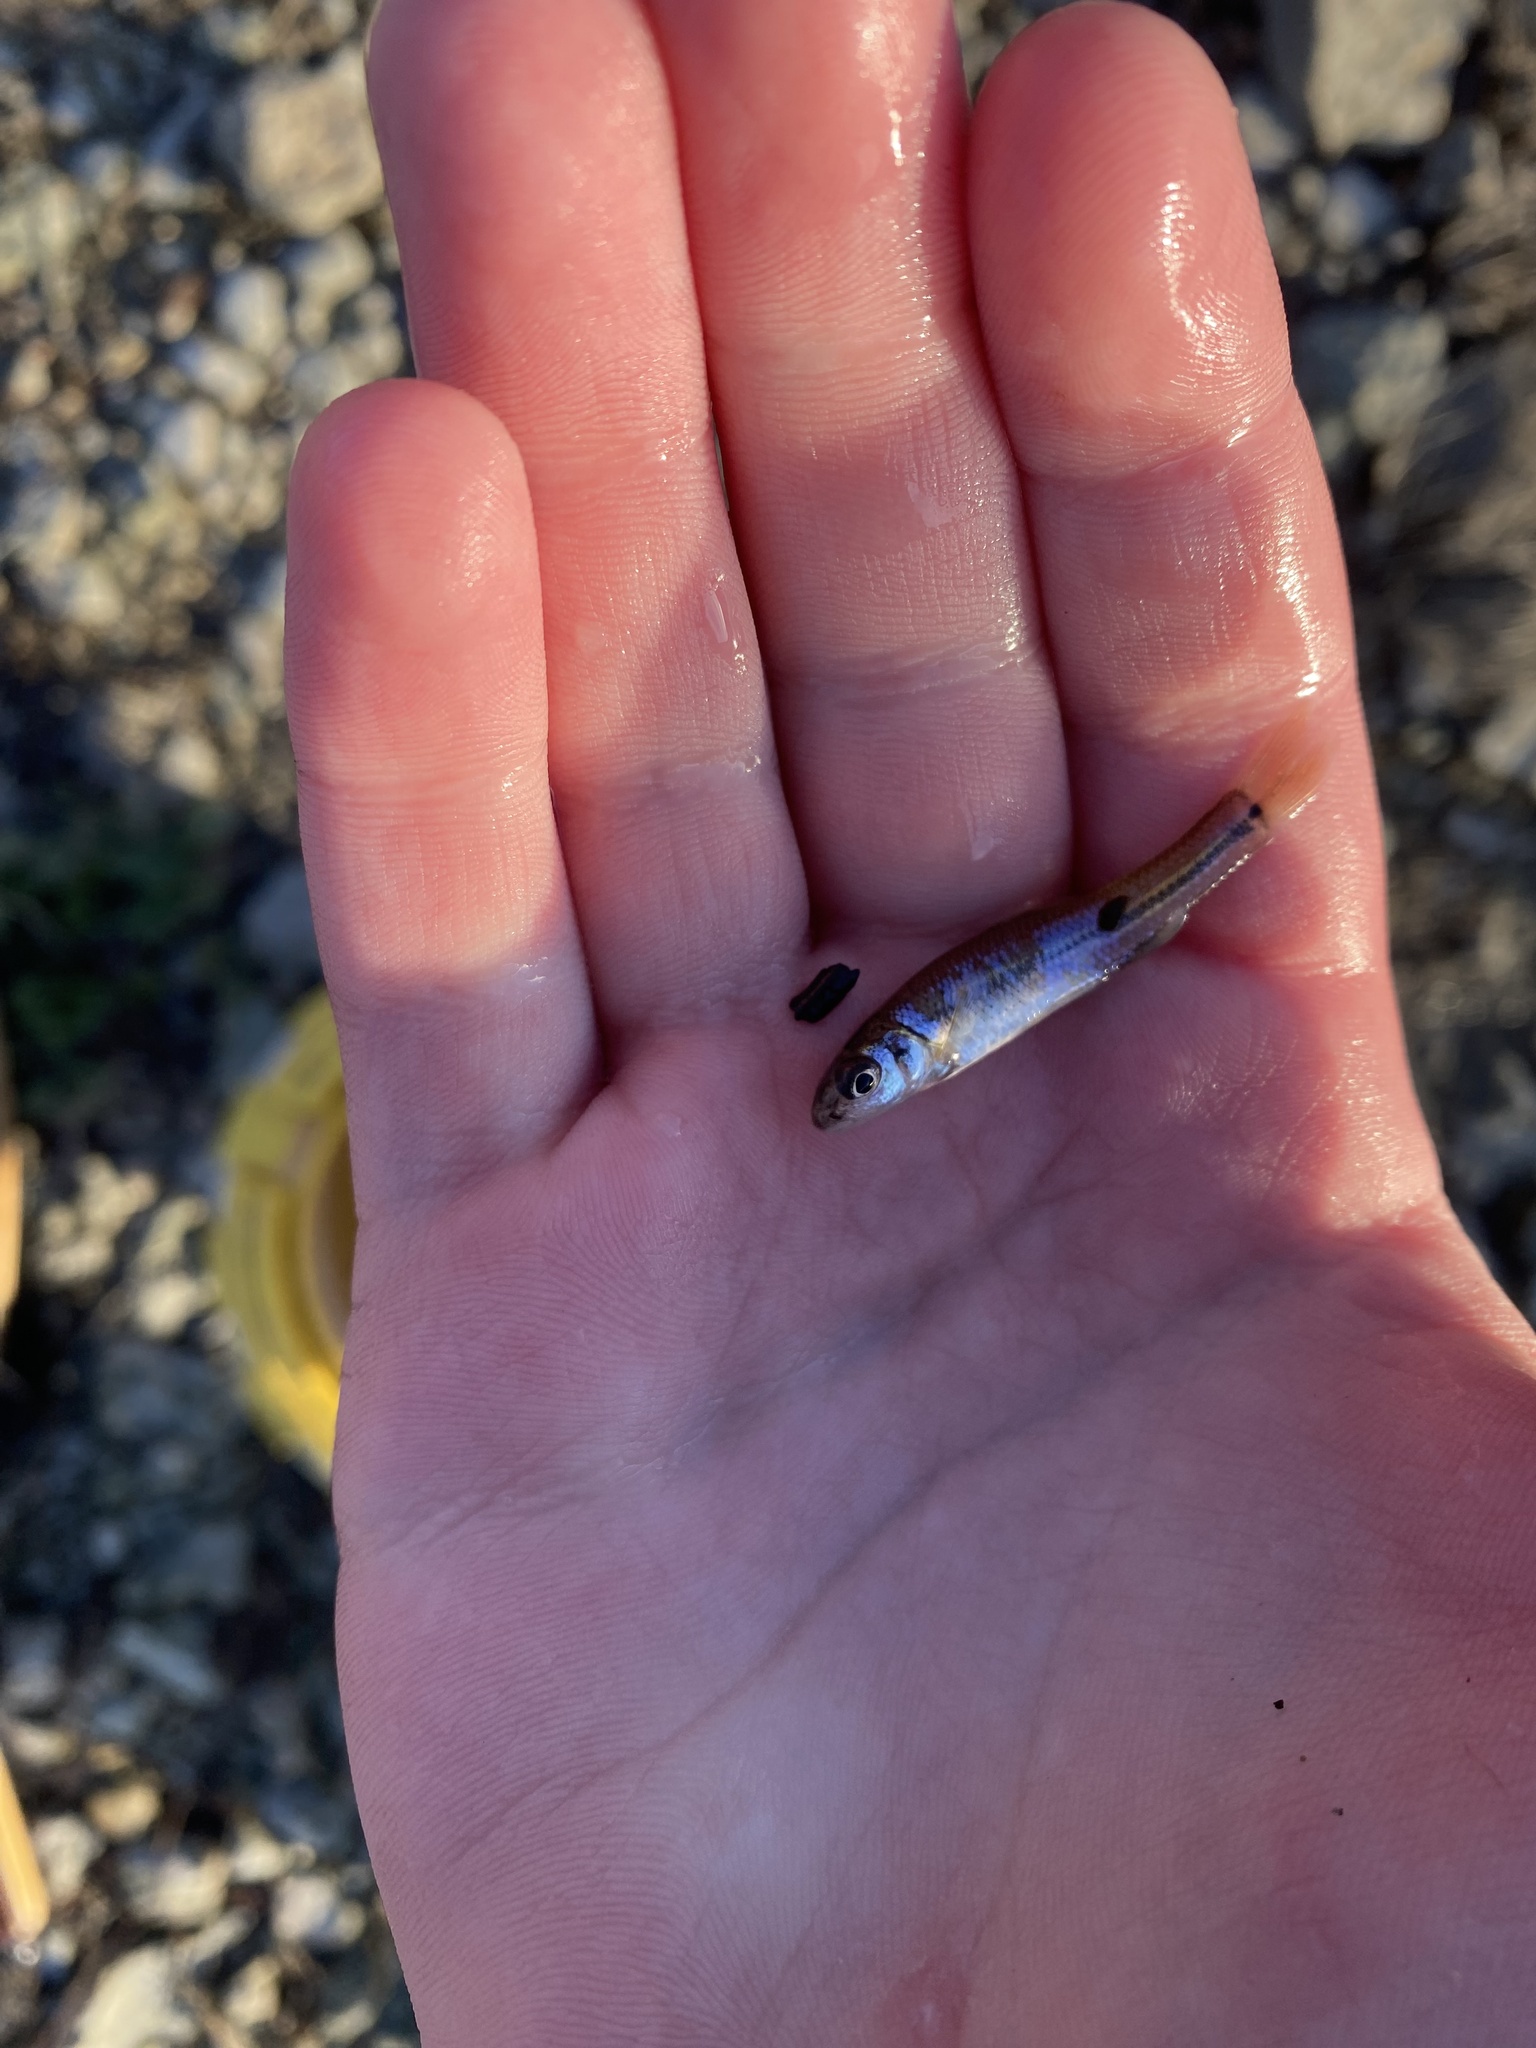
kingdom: Animalia
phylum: Chordata
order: Cypriniformes
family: Cyprinidae
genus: Pimephales
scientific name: Pimephales vigilax
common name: Bullhead minnow
